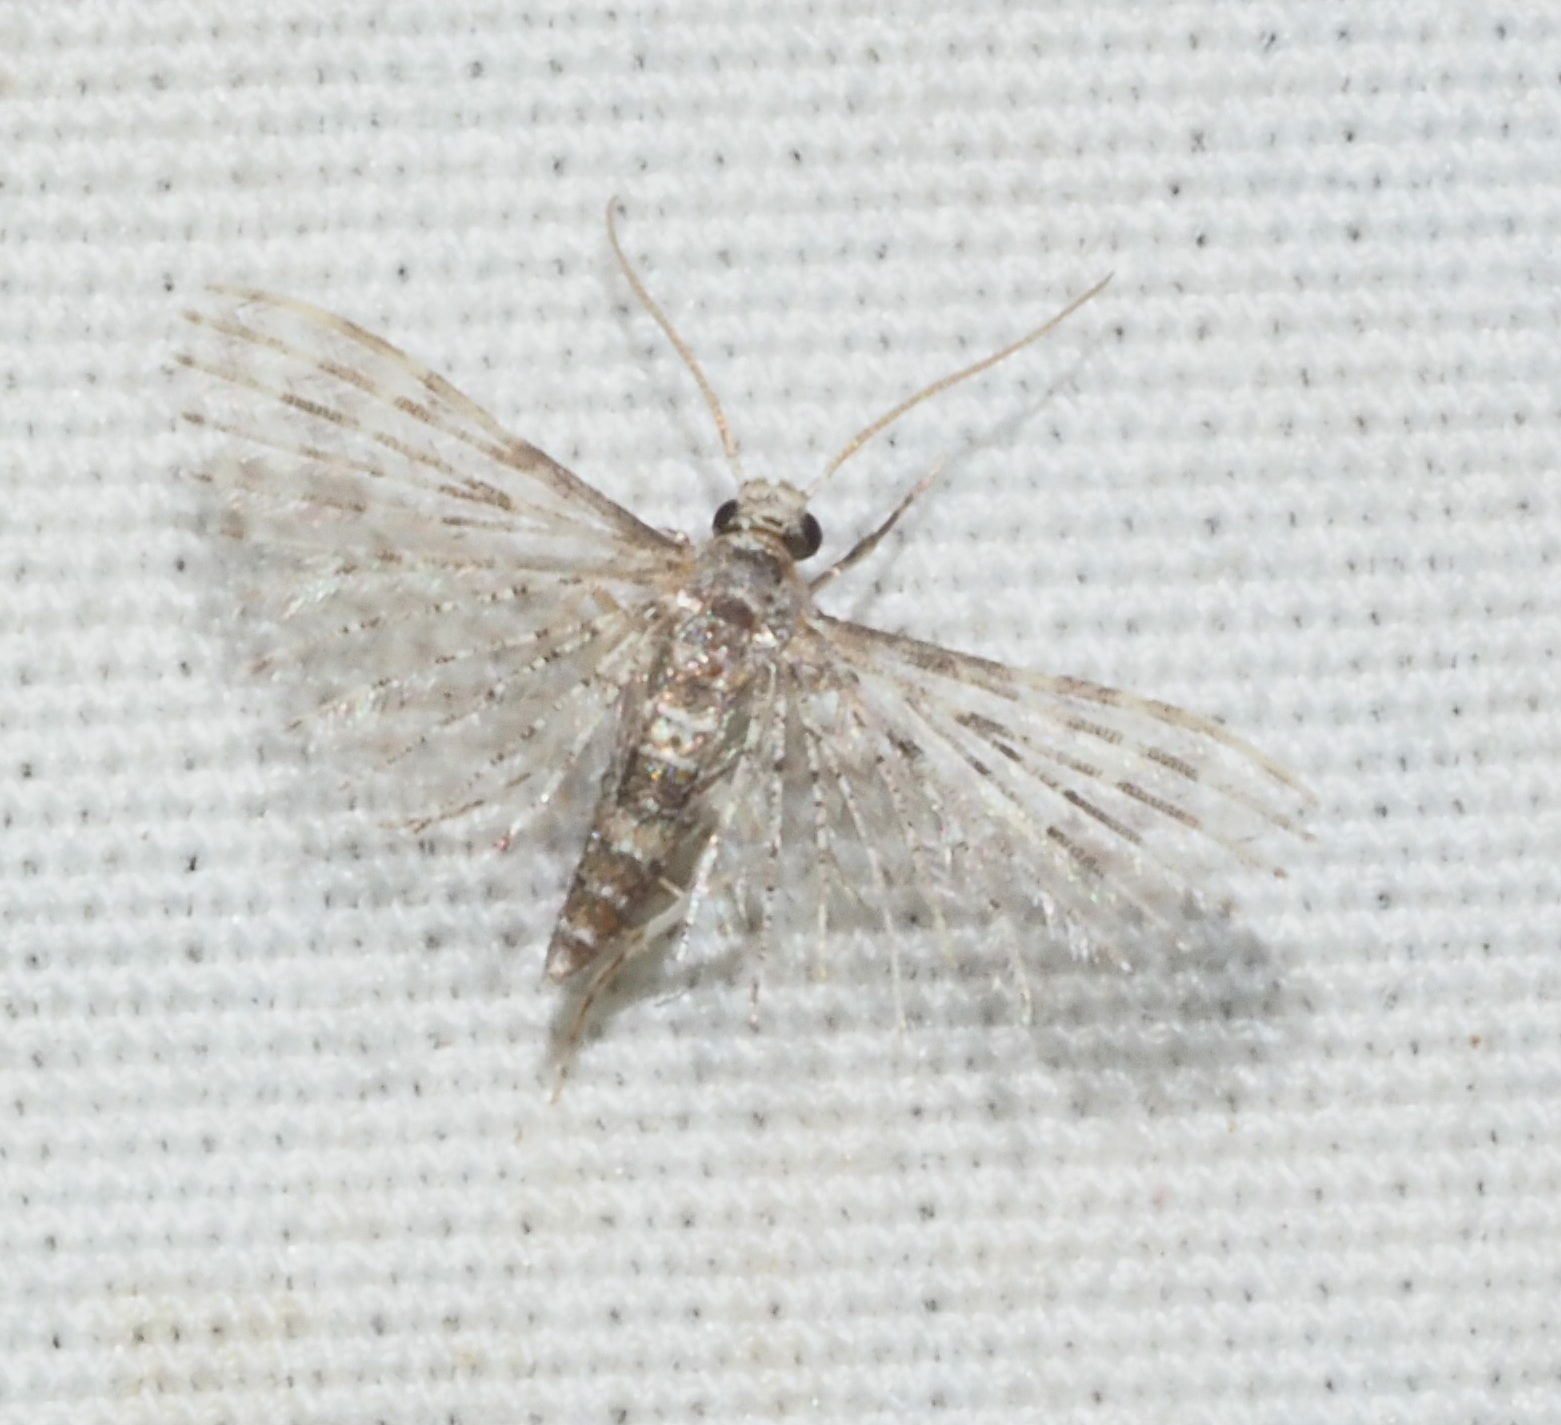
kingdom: Animalia
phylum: Arthropoda
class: Insecta
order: Lepidoptera
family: Alucitidae
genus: Alucita
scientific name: Alucita objurgatella
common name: Moth
